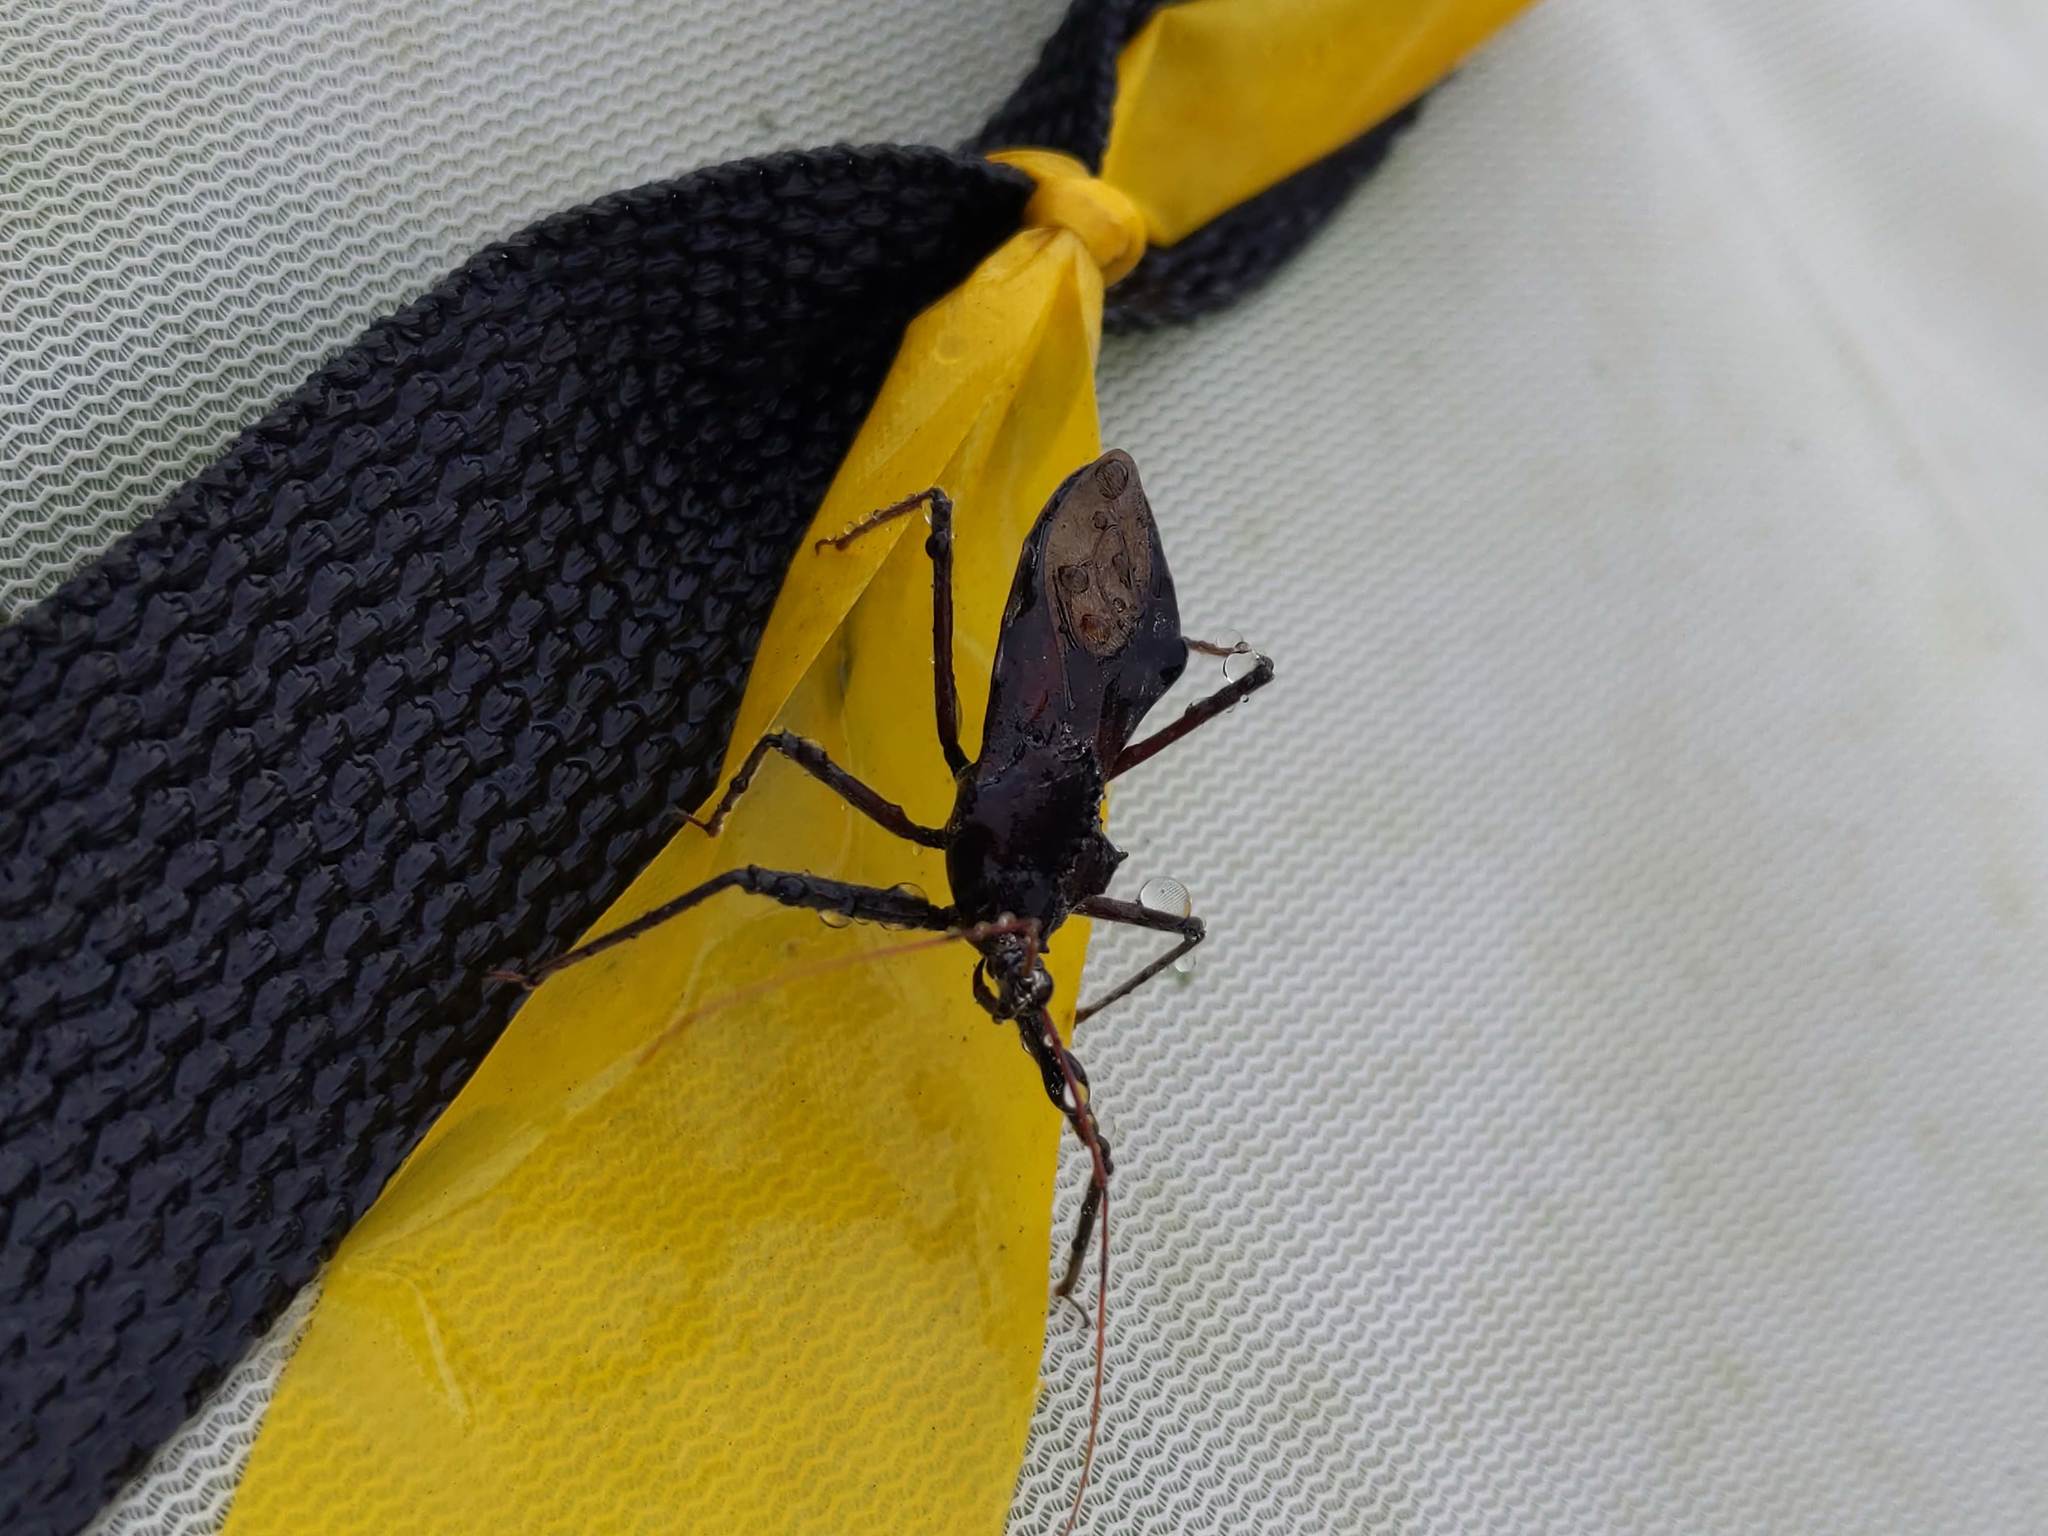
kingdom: Animalia
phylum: Arthropoda
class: Insecta
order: Hemiptera
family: Reduviidae
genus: Arilus
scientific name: Arilus cristatus
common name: North american wheel bug
